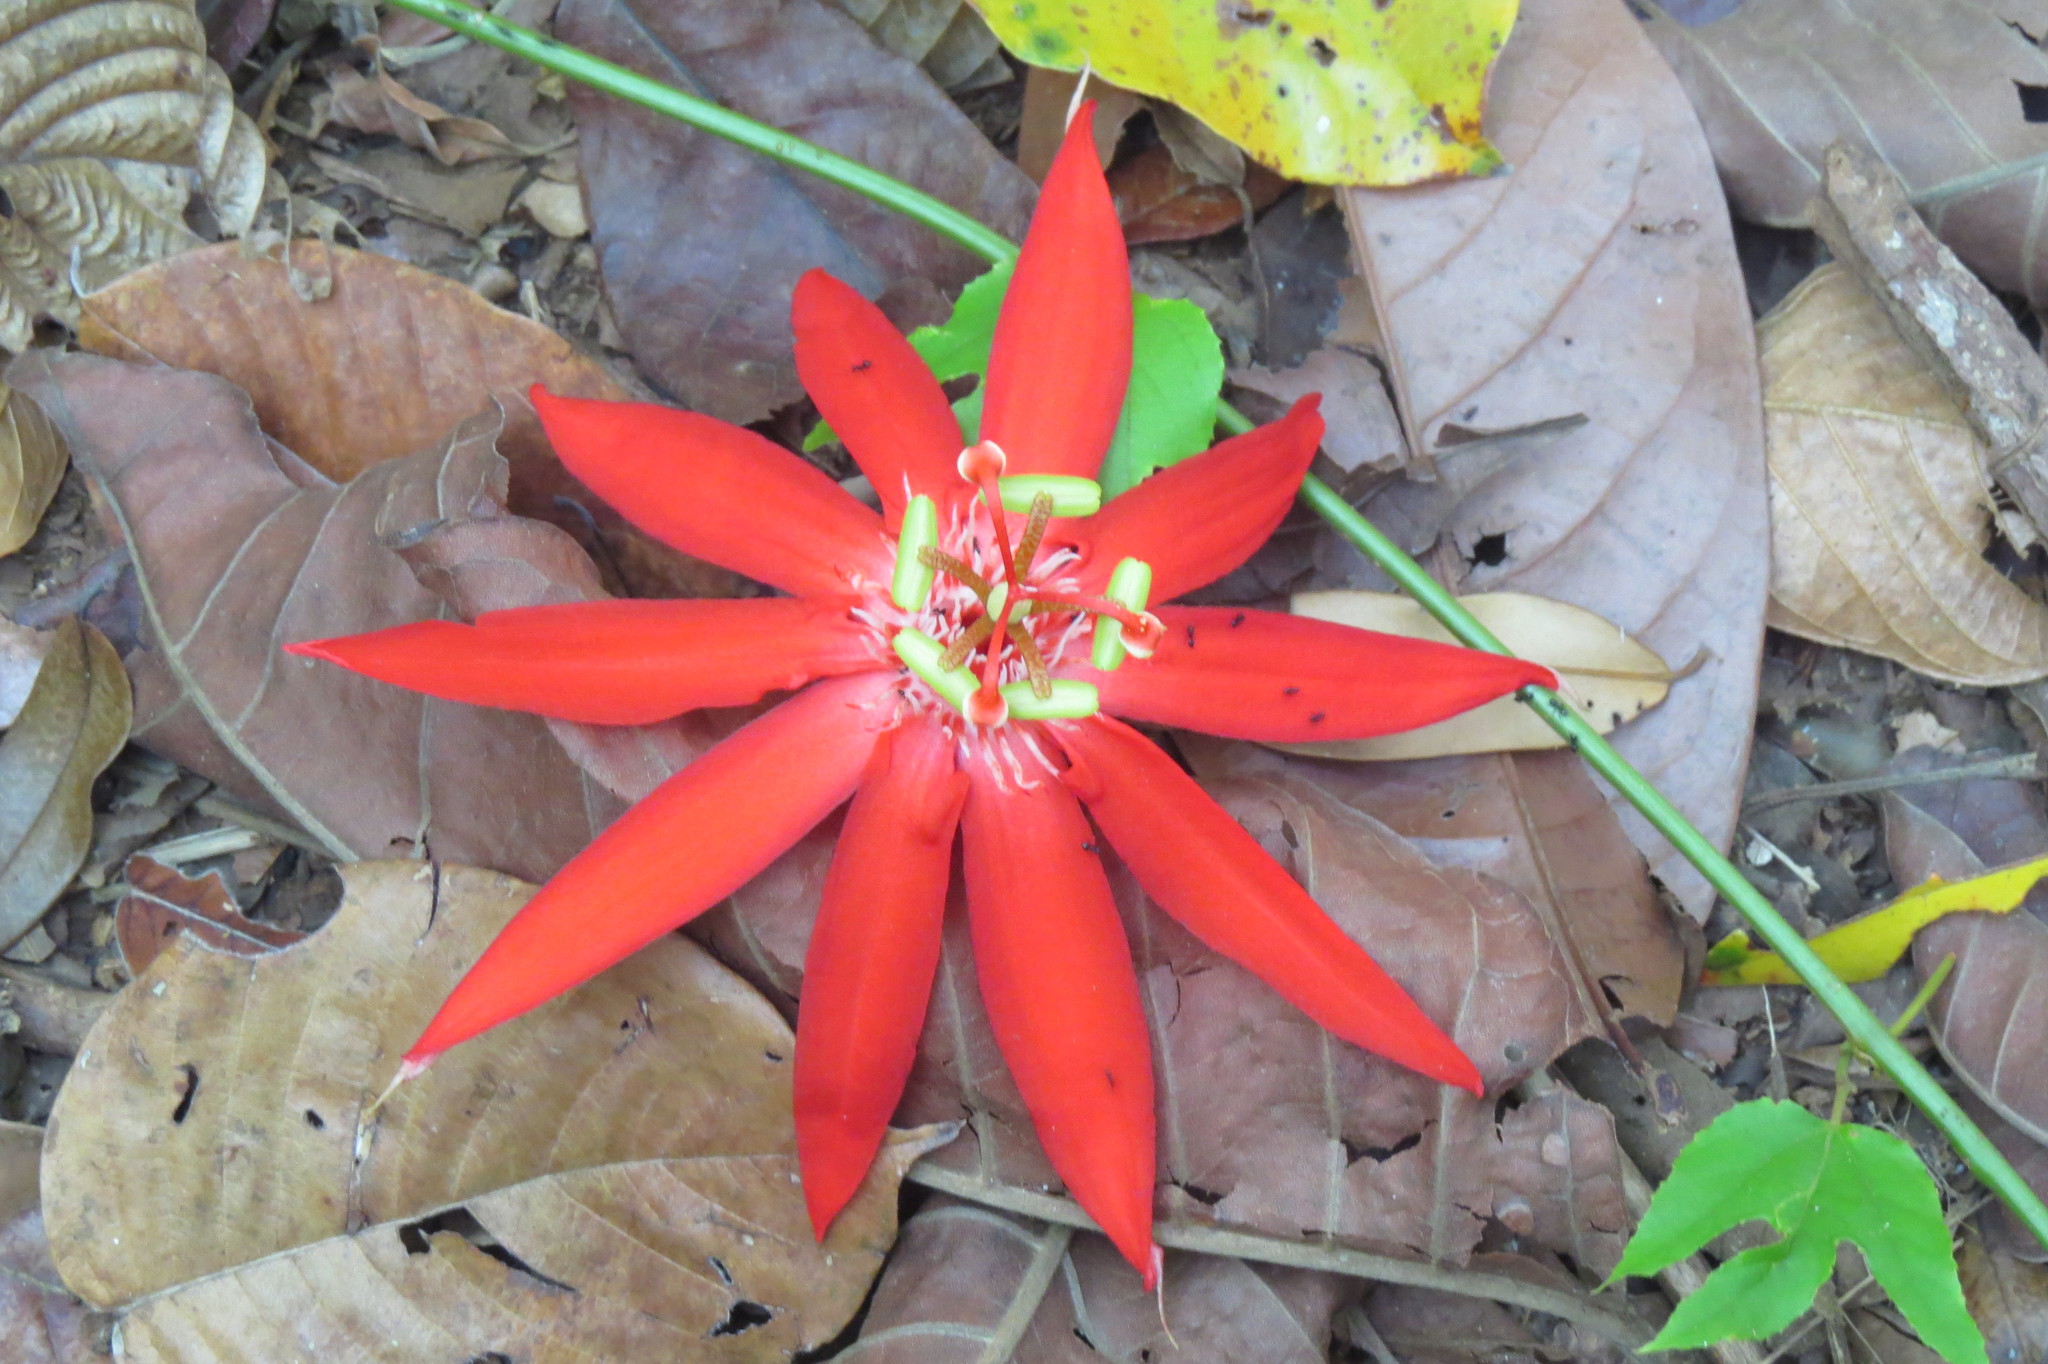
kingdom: Plantae
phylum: Tracheophyta
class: Magnoliopsida
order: Malpighiales
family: Passifloraceae
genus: Passiflora
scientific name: Passiflora vitifolia
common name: Perfumed passionflower
